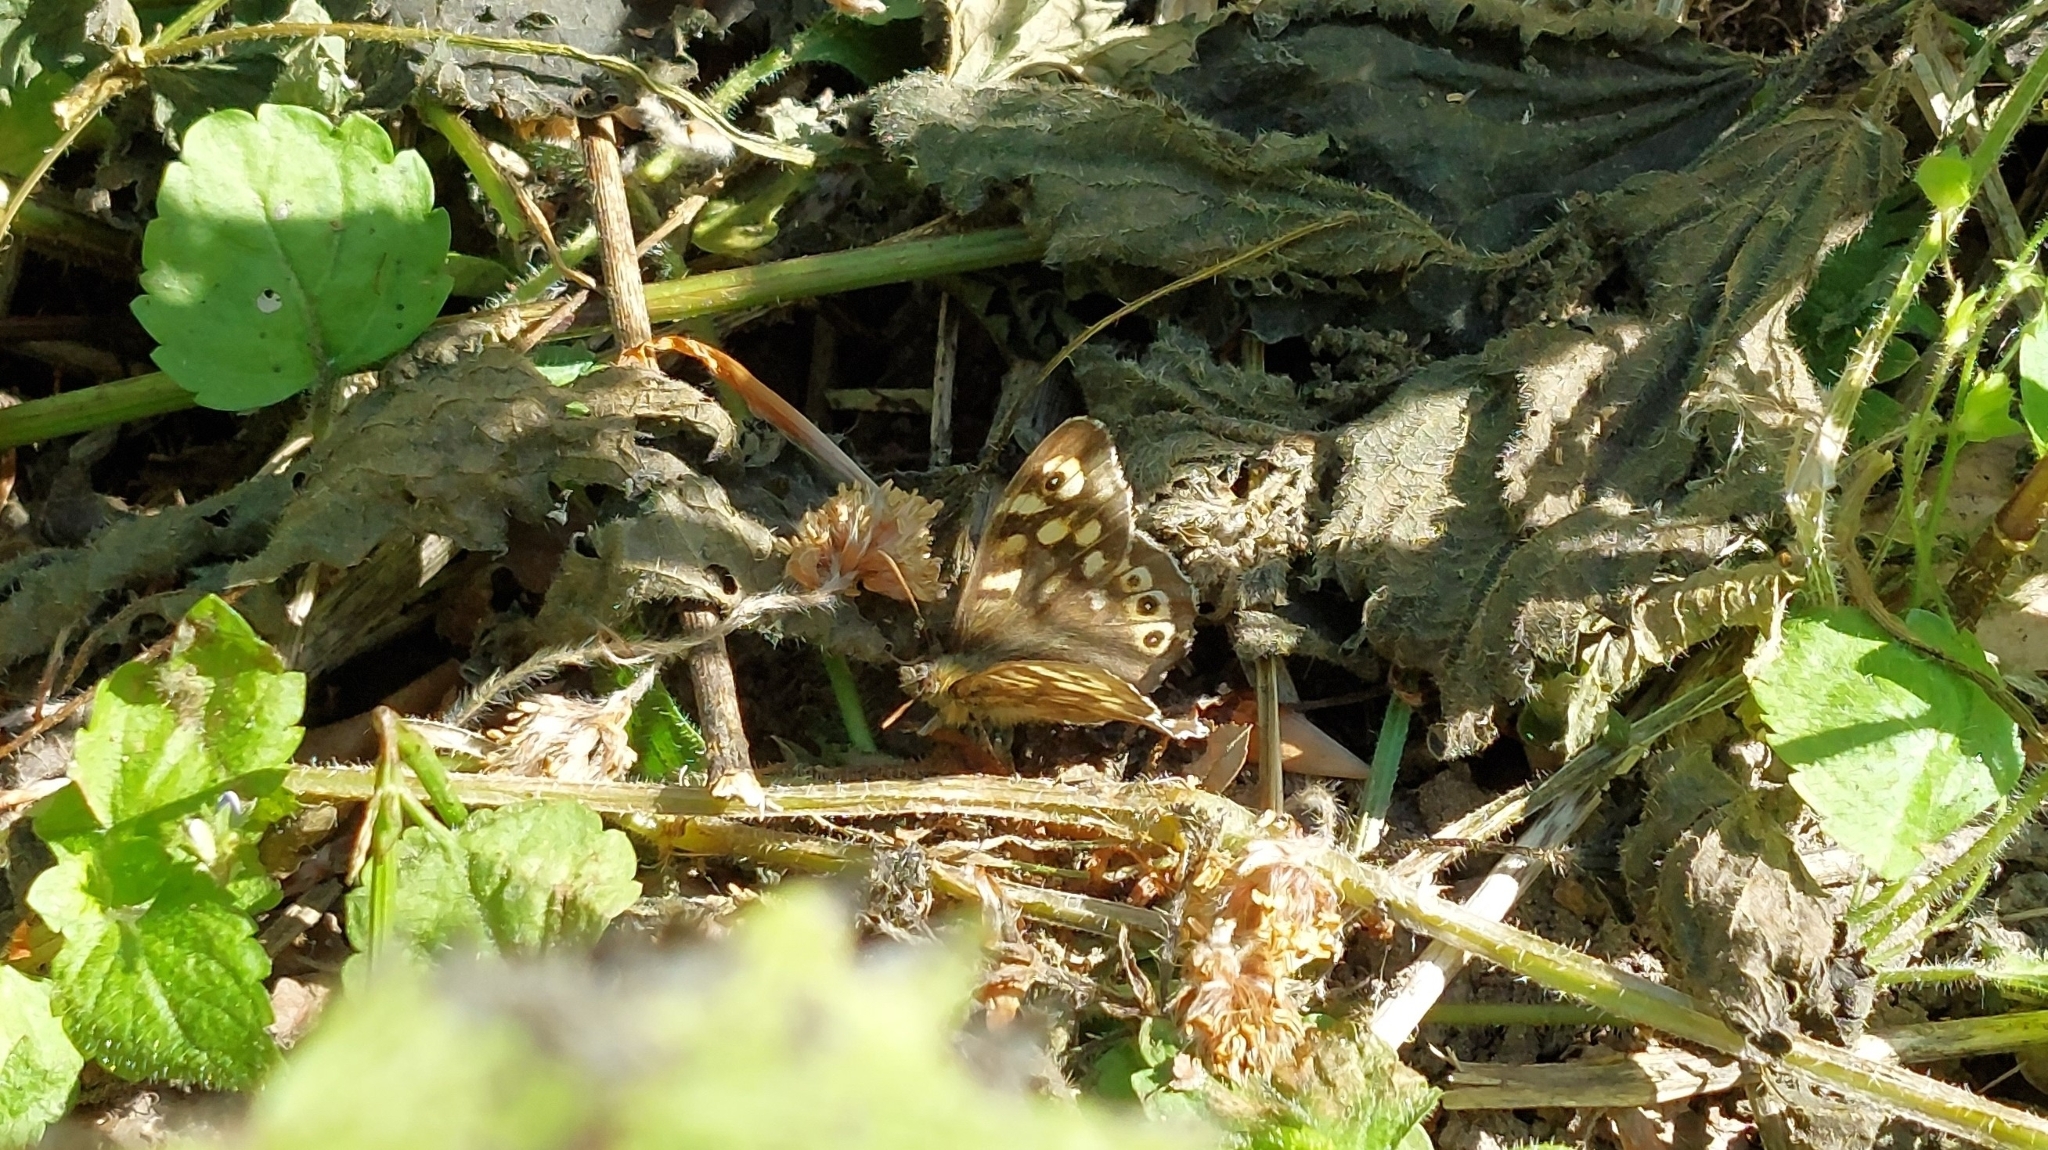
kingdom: Animalia
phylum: Arthropoda
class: Insecta
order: Lepidoptera
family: Nymphalidae
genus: Pararge
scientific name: Pararge aegeria
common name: Speckled wood
